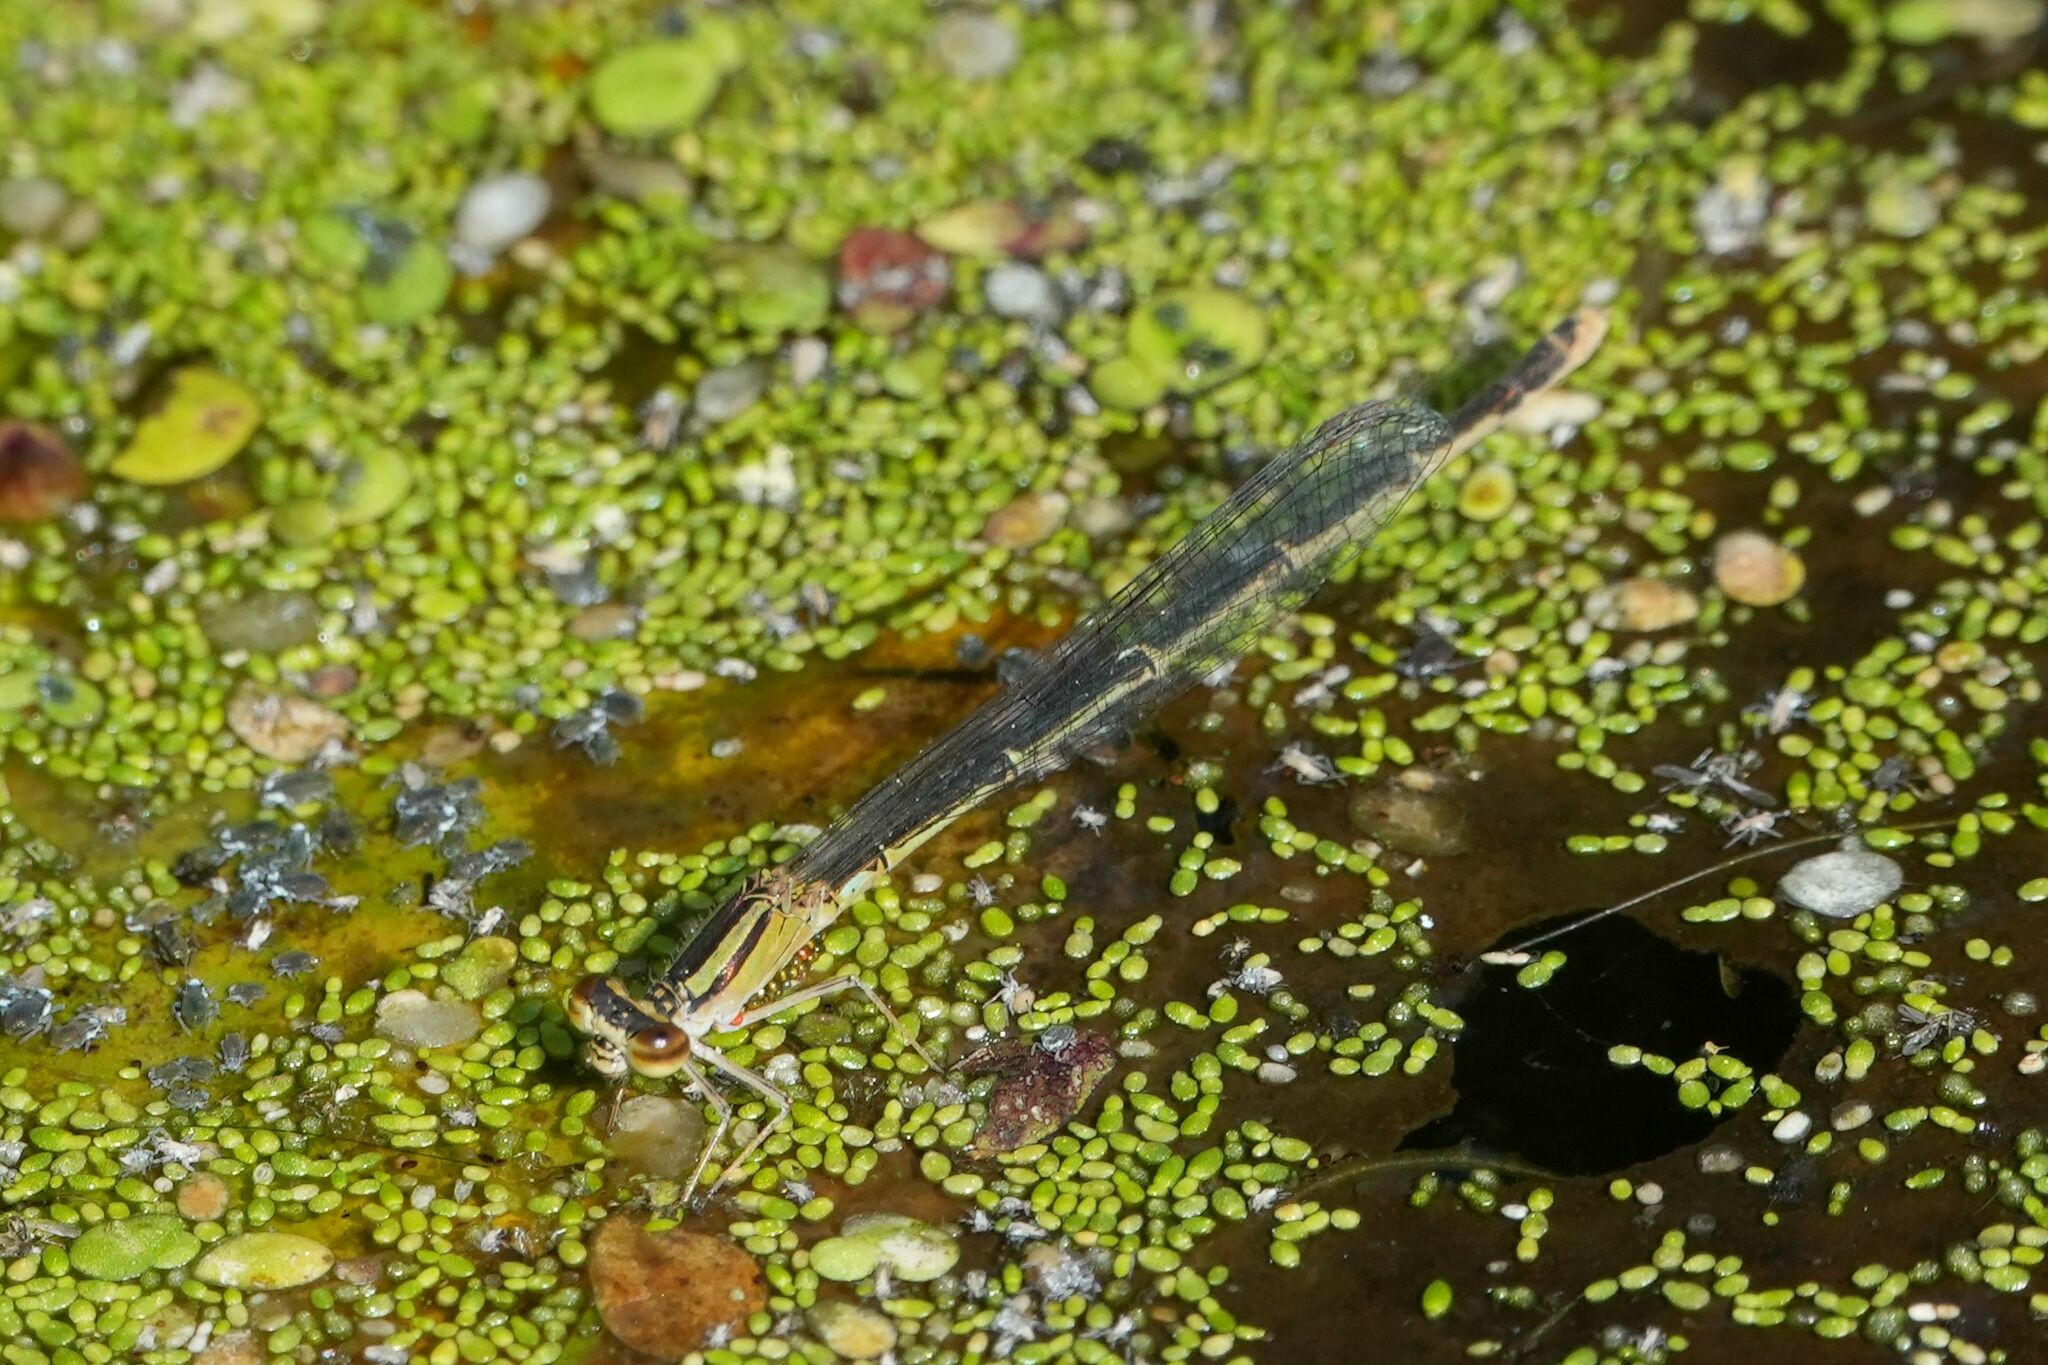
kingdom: Animalia
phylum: Arthropoda
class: Insecta
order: Odonata
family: Coenagrionidae
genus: Enallagma
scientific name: Enallagma signatum
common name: Orange bluet
